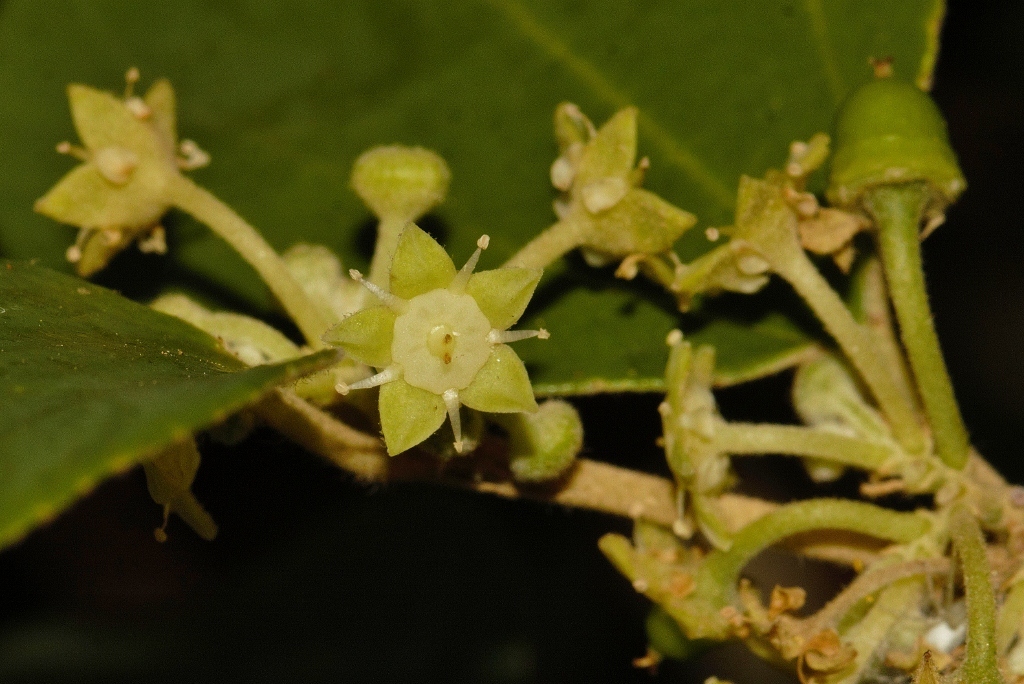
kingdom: Plantae
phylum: Tracheophyta
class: Magnoliopsida
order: Rosales
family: Rhamnaceae
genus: Ziziphus
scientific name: Ziziphus mauritiana
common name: Indian jujube
